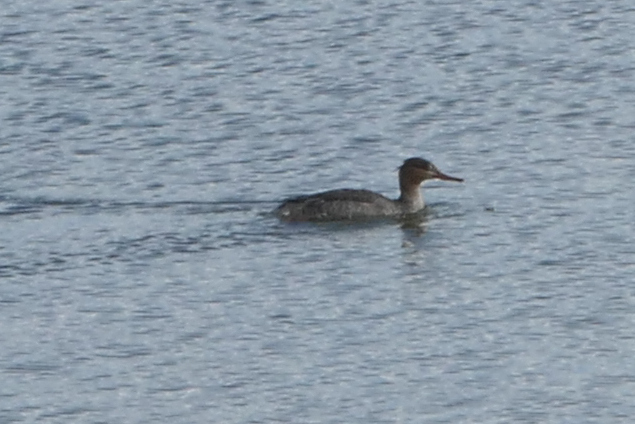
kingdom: Animalia
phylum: Chordata
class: Aves
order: Anseriformes
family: Anatidae
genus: Mergus
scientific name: Mergus serrator
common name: Red-breasted merganser
